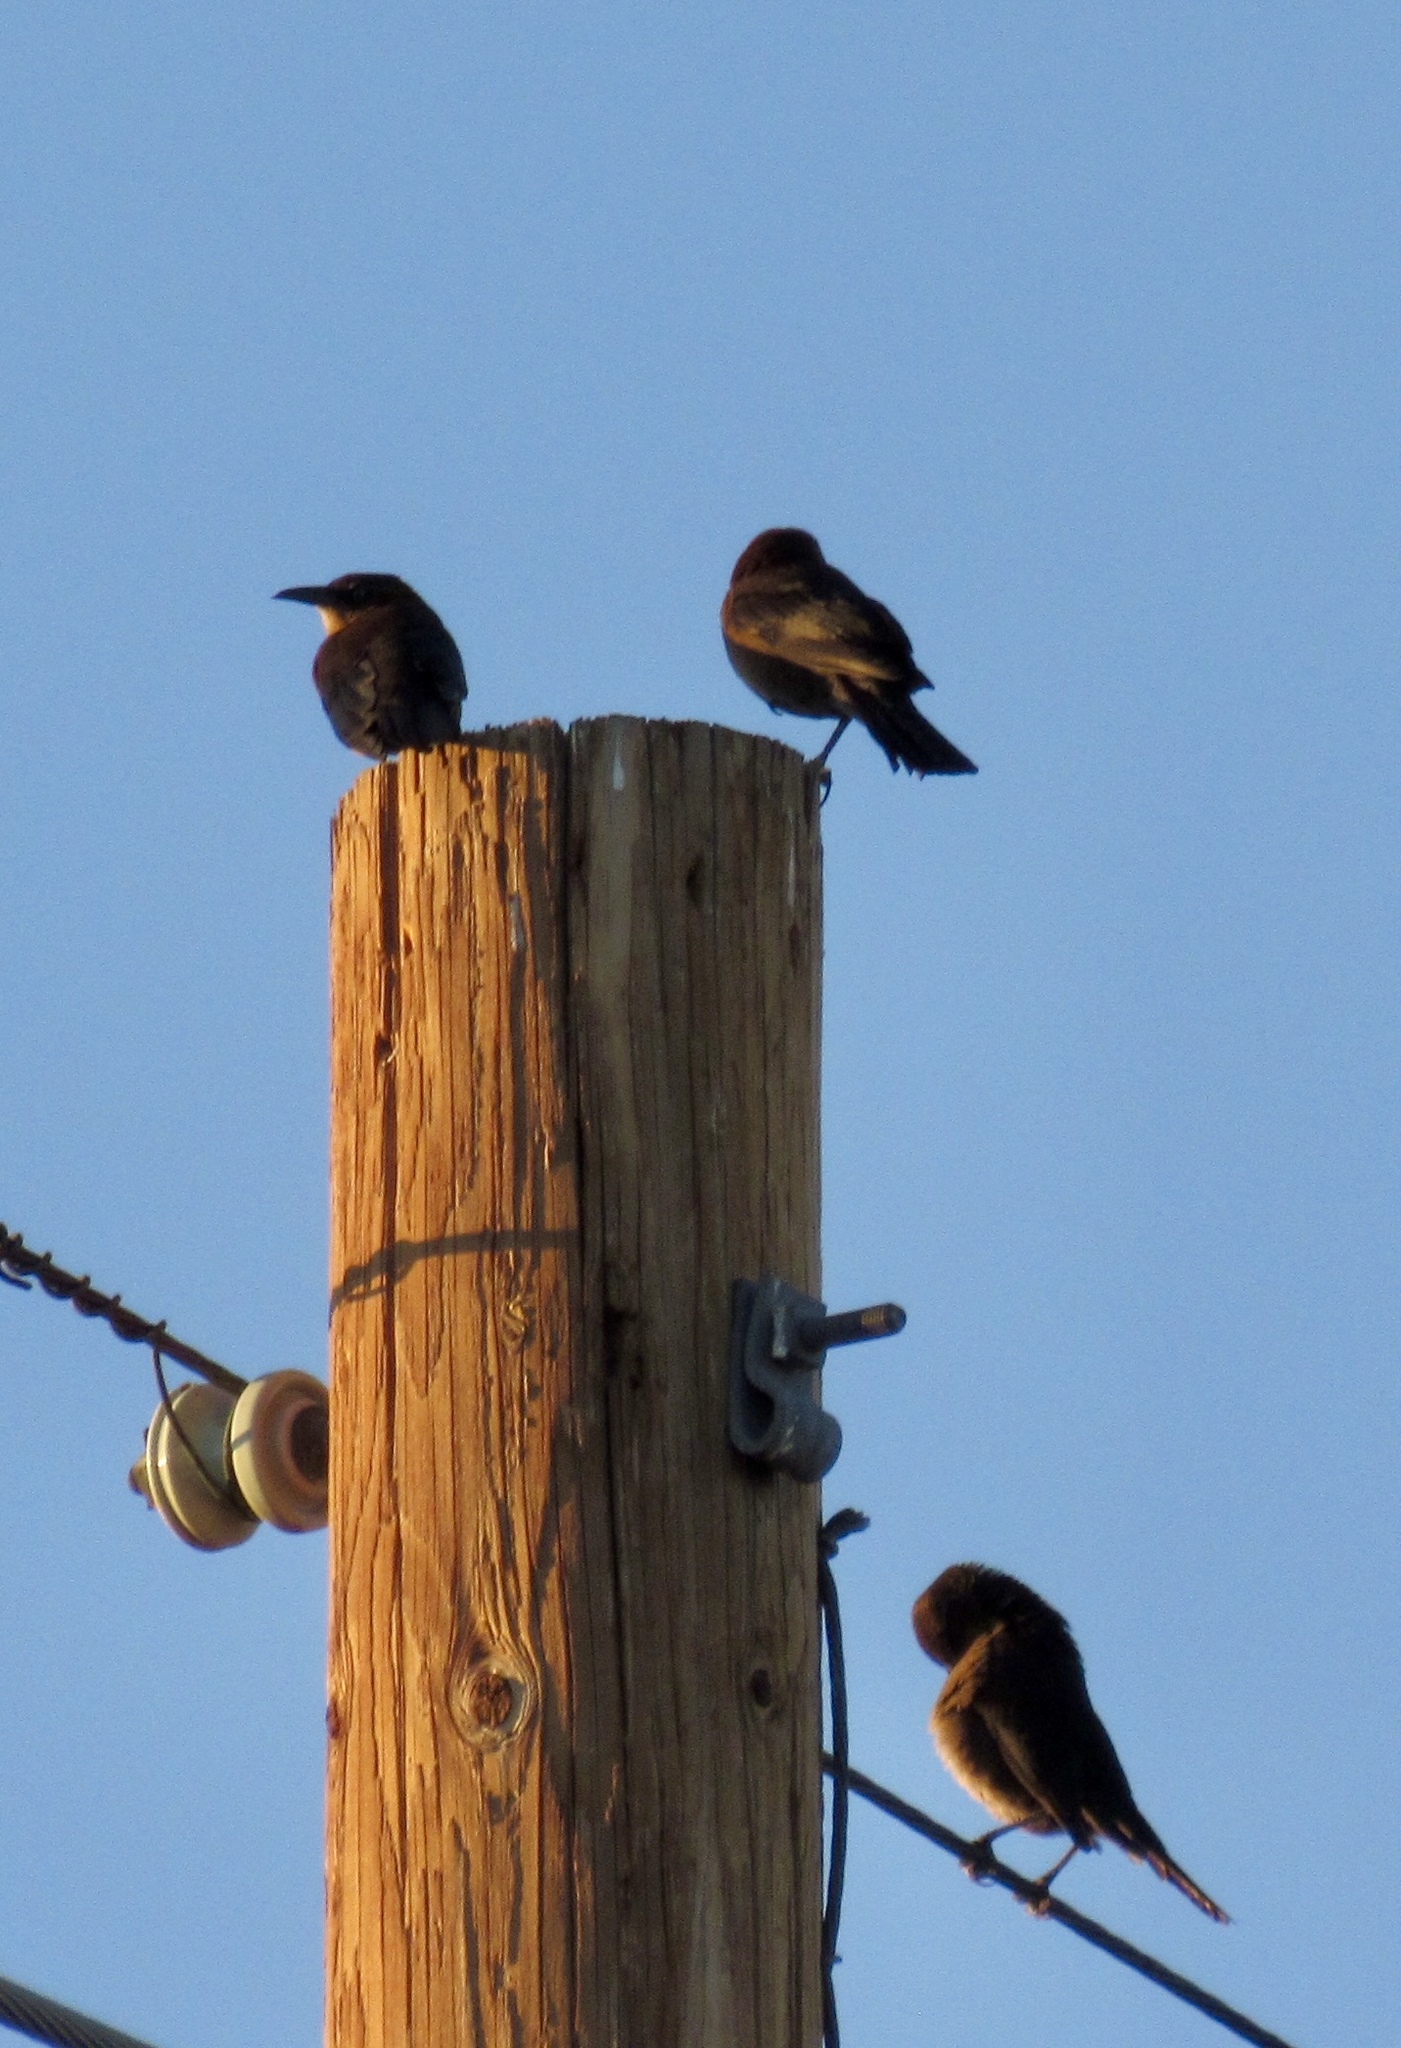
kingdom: Animalia
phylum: Chordata
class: Aves
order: Passeriformes
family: Icteridae
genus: Quiscalus
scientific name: Quiscalus mexicanus
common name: Great-tailed grackle
